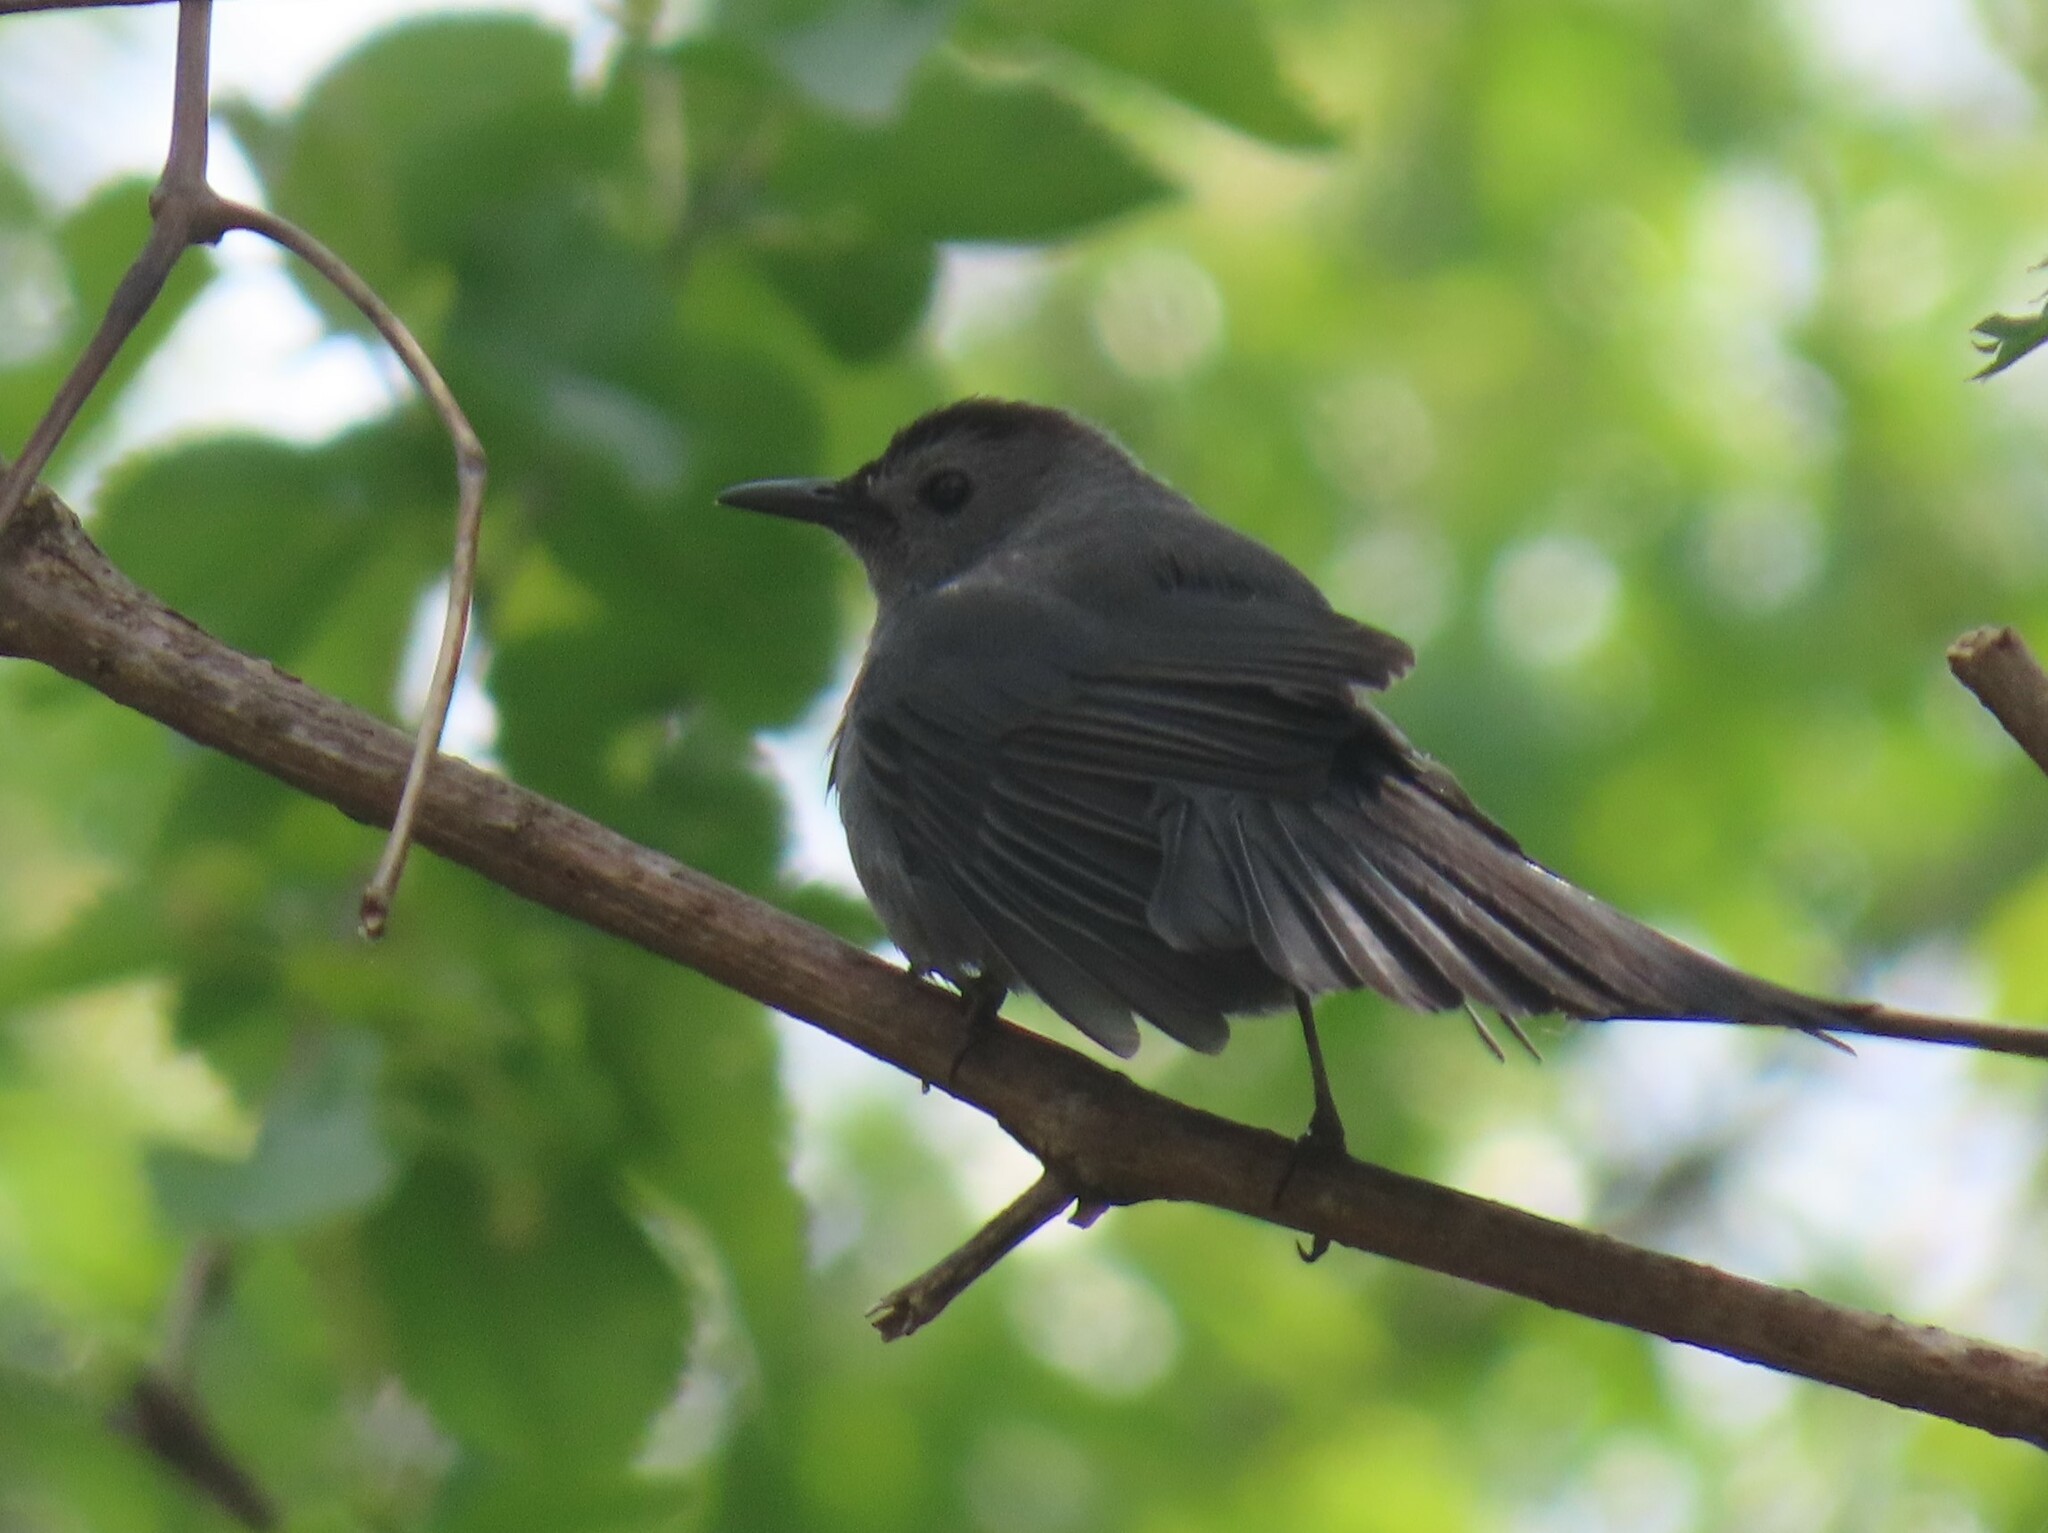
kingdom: Animalia
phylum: Chordata
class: Aves
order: Passeriformes
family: Mimidae
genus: Dumetella
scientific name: Dumetella carolinensis
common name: Gray catbird
